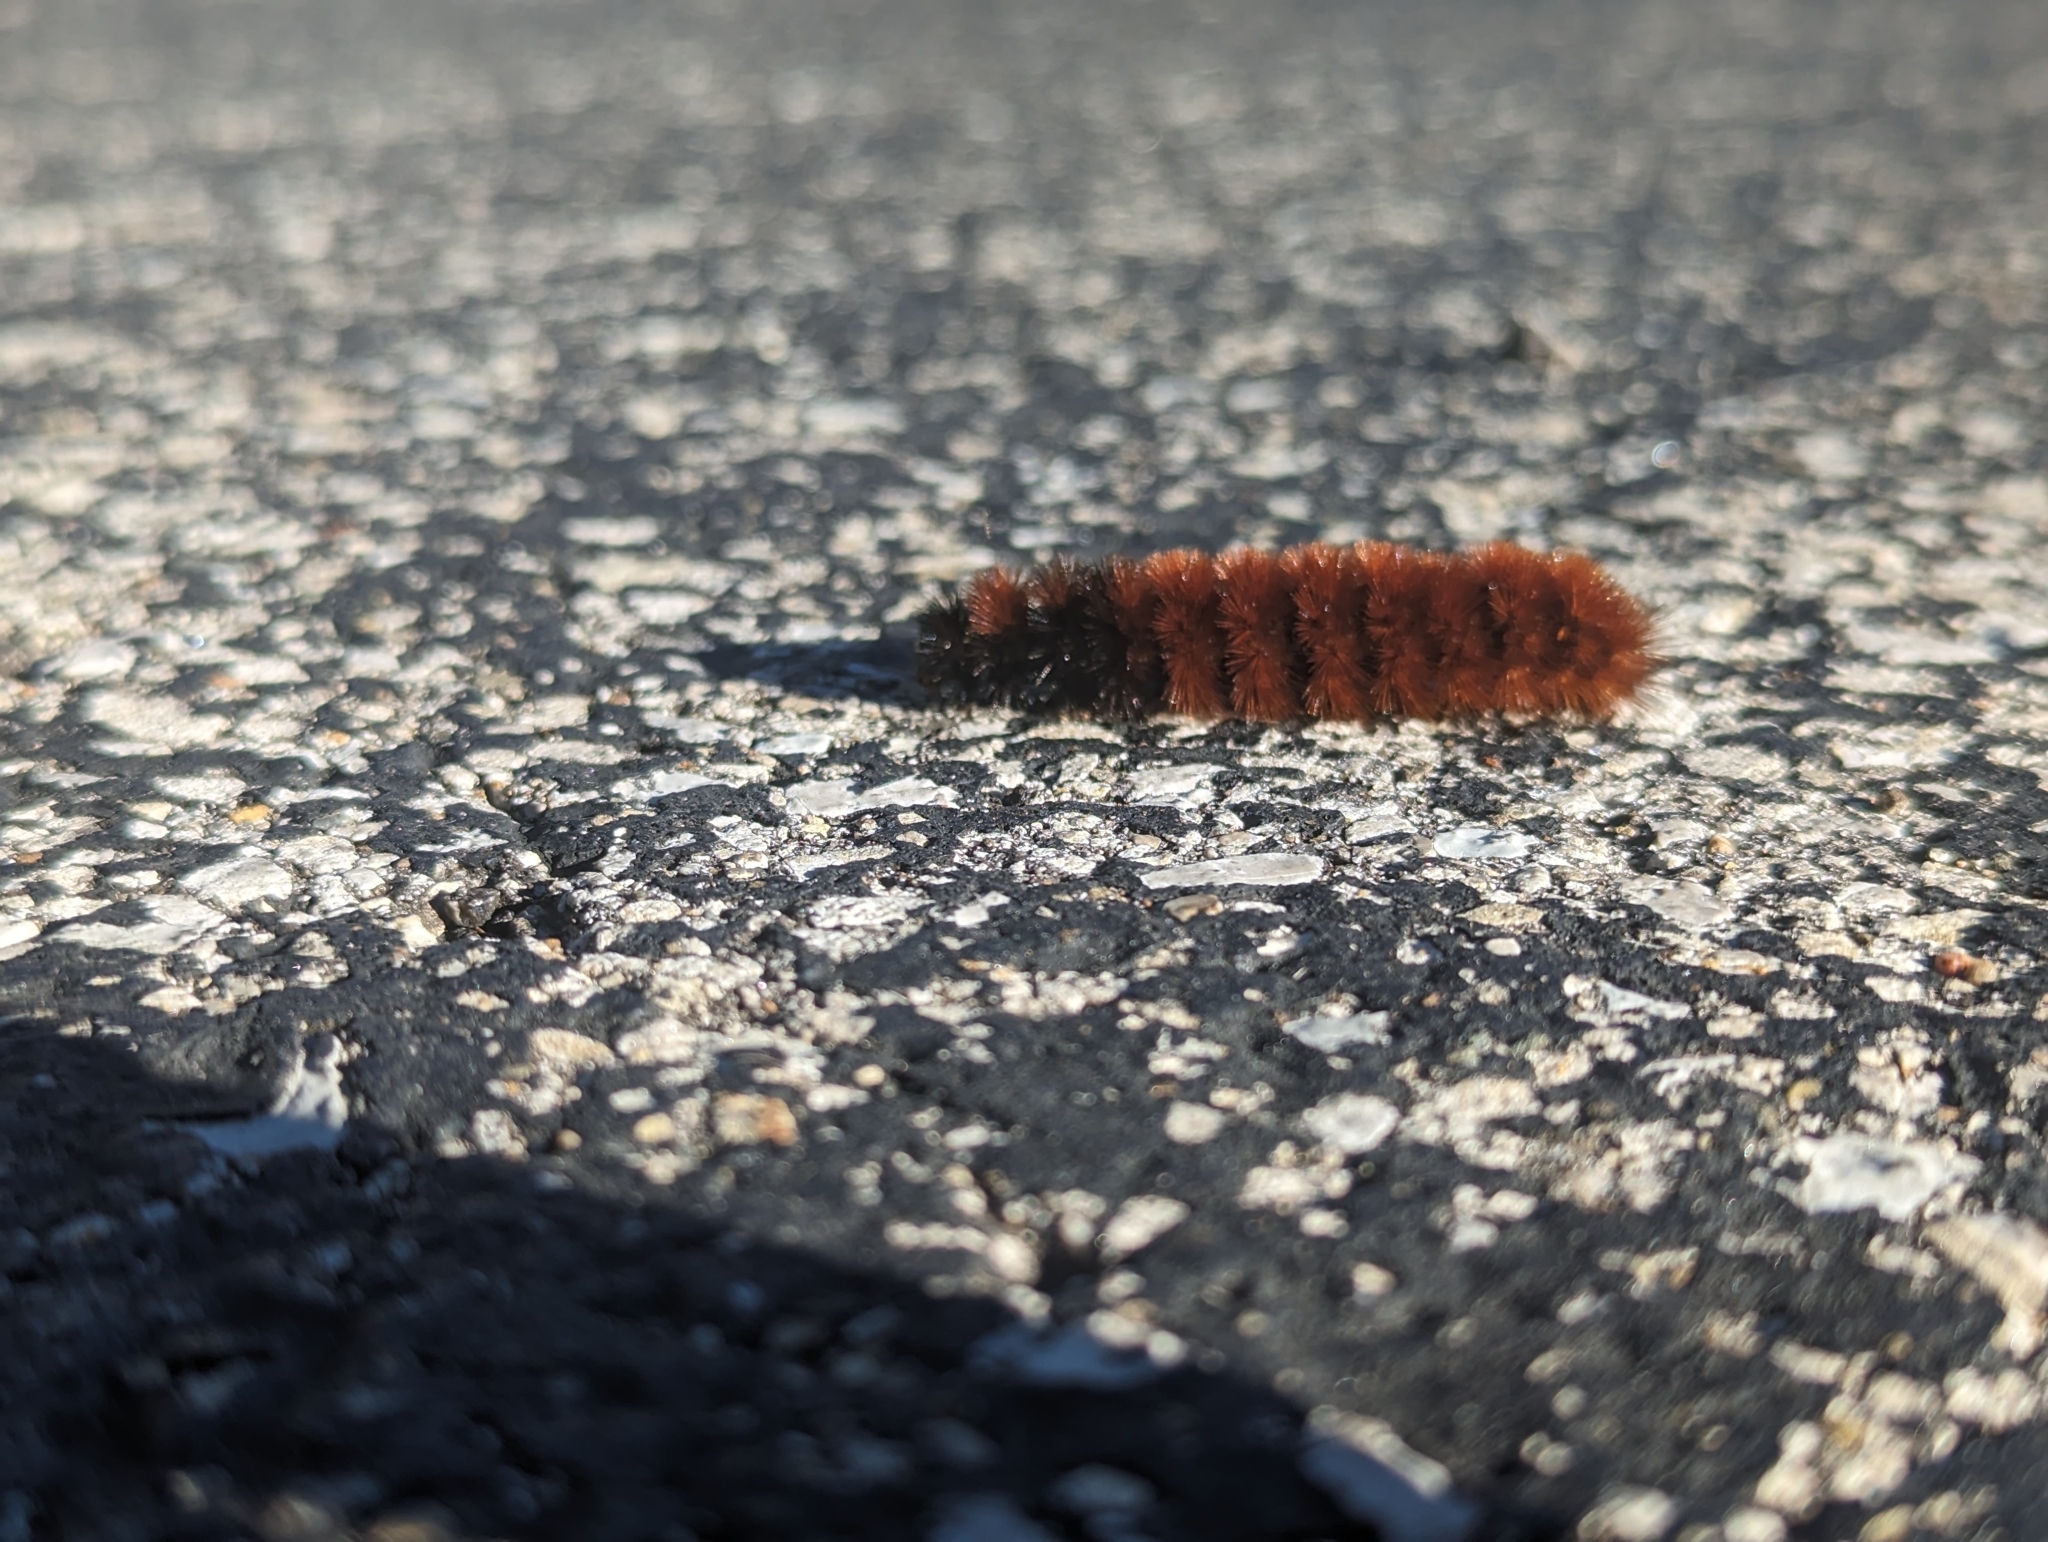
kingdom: Animalia
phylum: Arthropoda
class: Insecta
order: Lepidoptera
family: Erebidae
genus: Pyrrharctia
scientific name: Pyrrharctia isabella
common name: Isabella tiger moth
